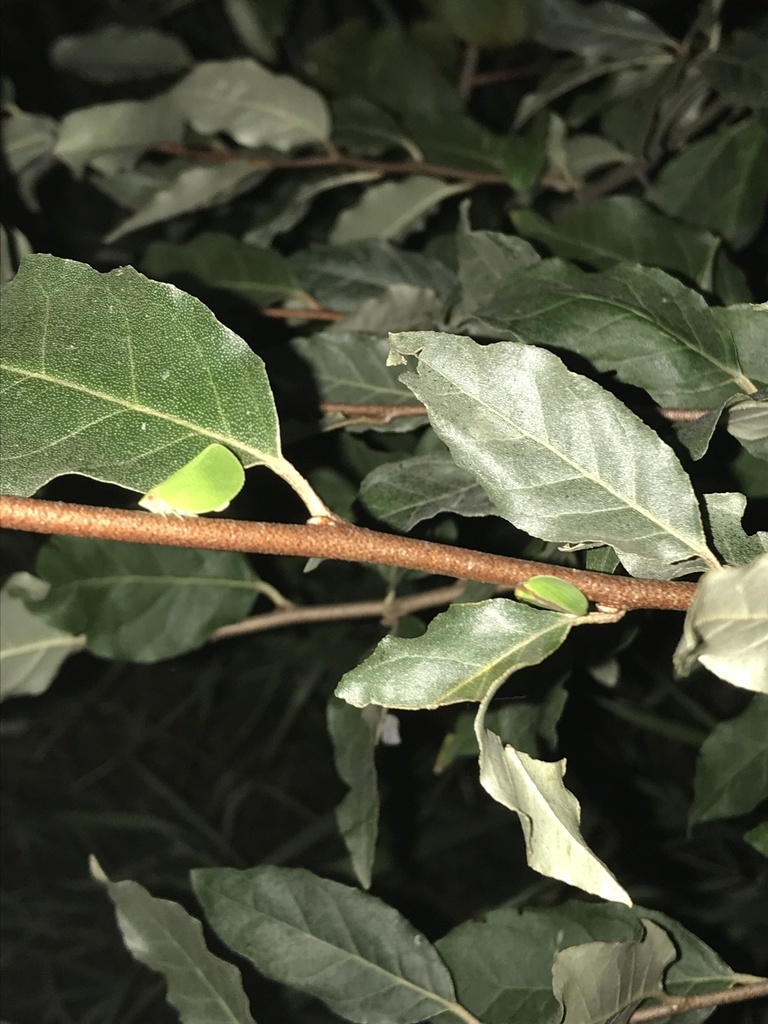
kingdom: Animalia
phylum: Arthropoda
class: Insecta
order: Hemiptera
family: Acanaloniidae
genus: Acanalonia
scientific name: Acanalonia bivittata
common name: Two-striped planthopper
